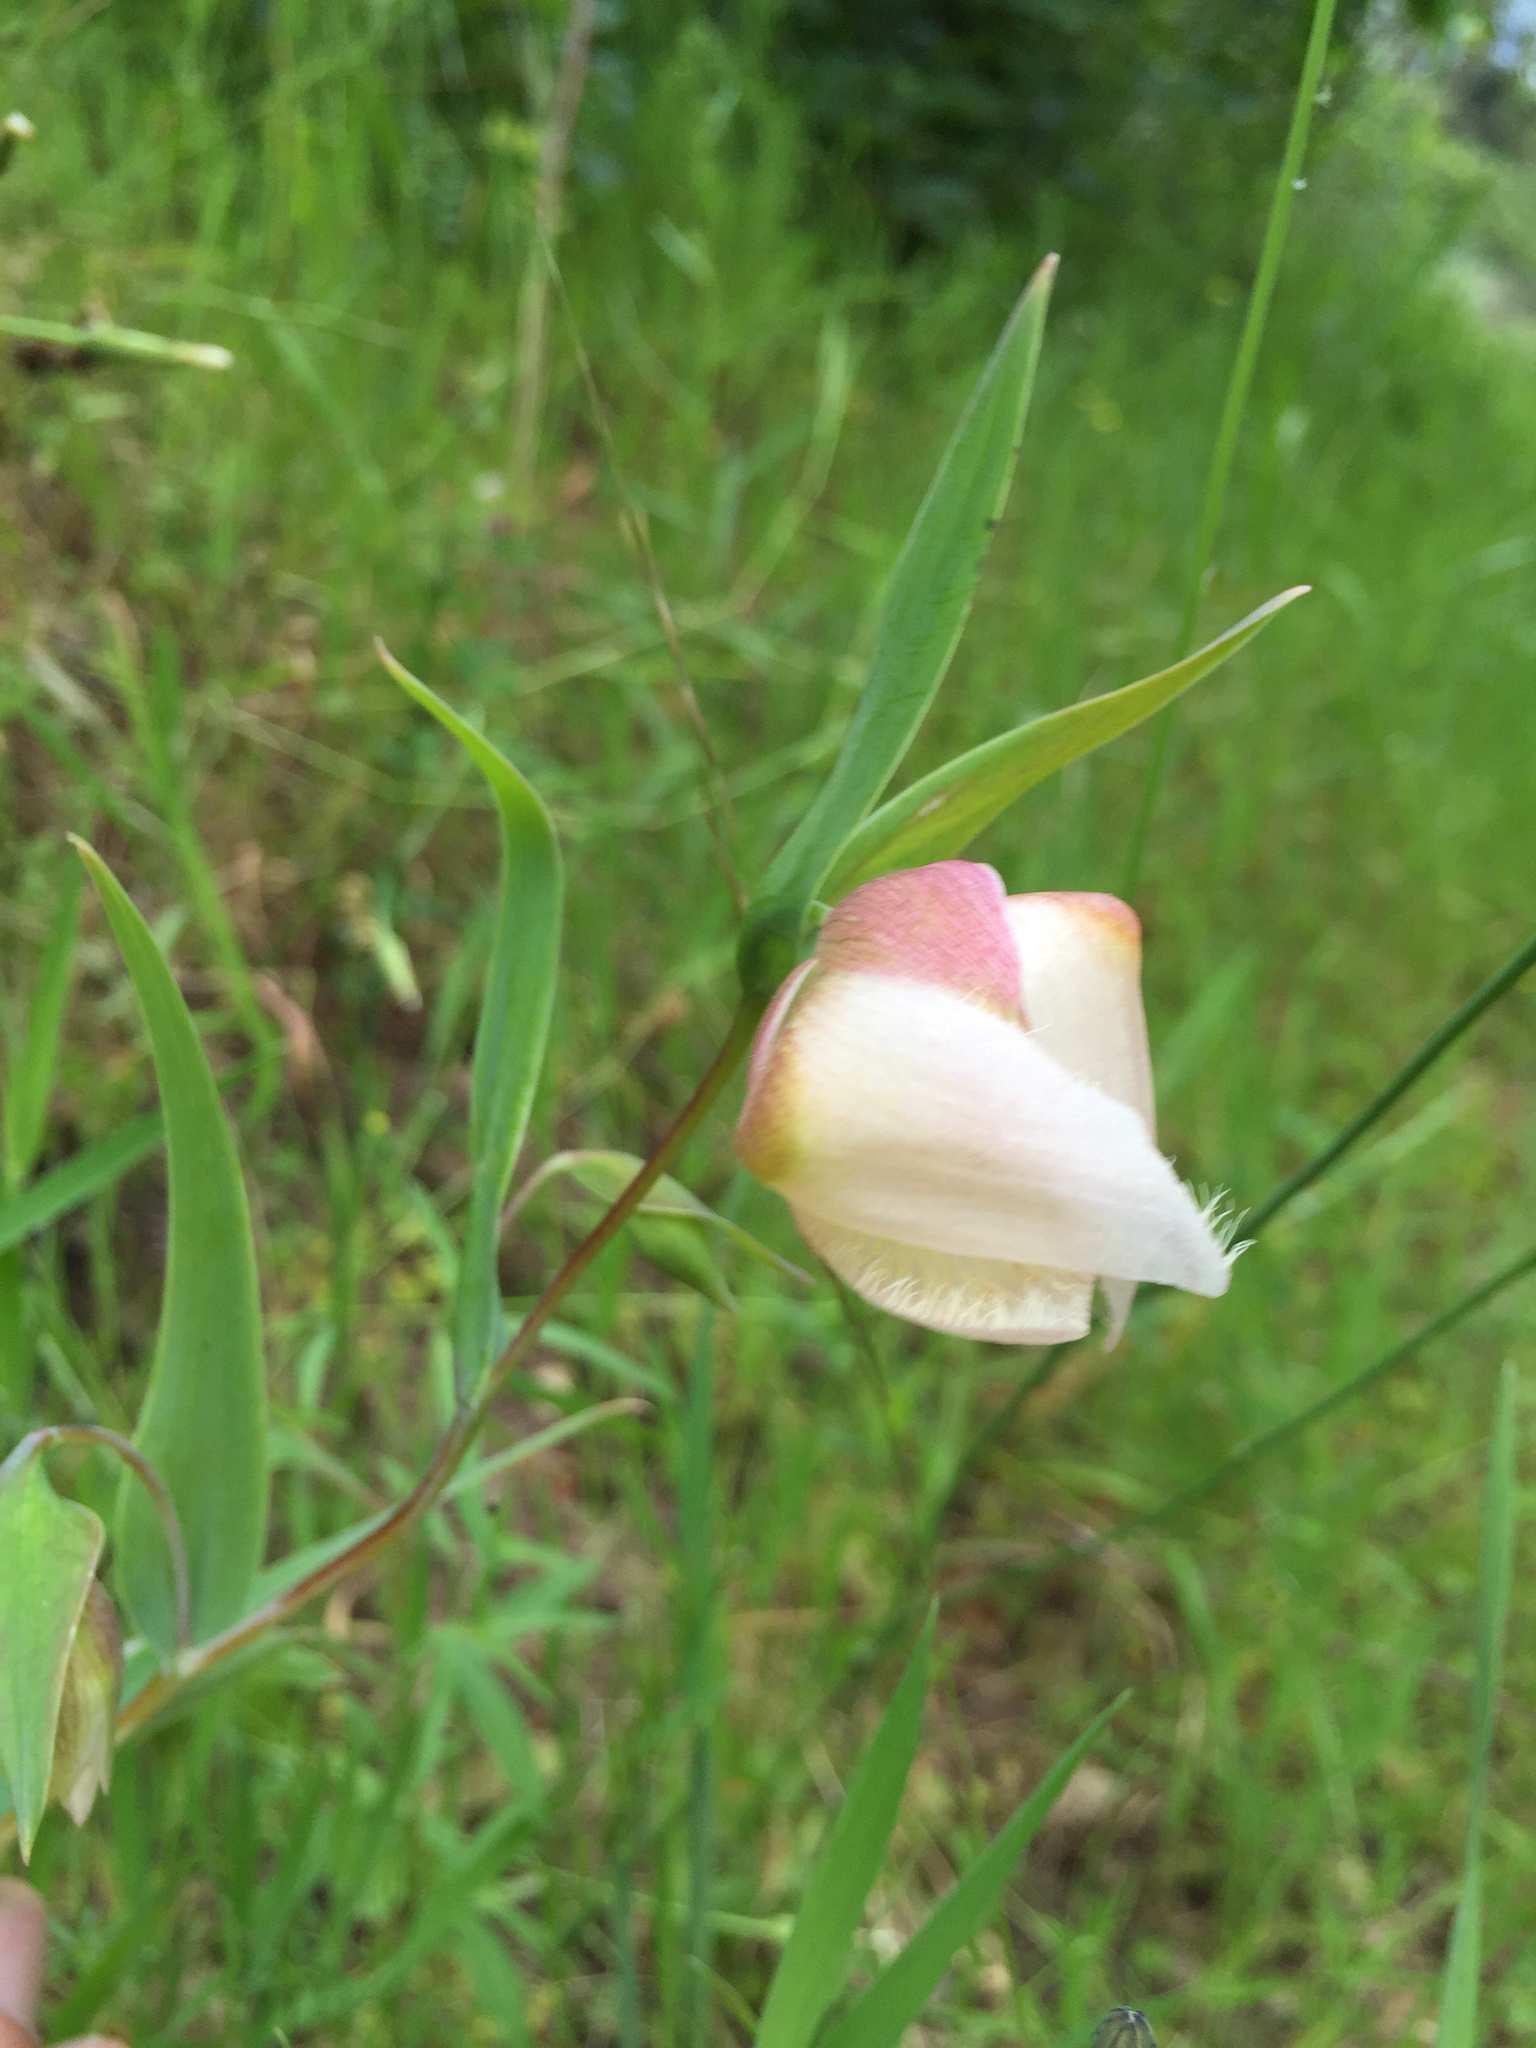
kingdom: Plantae
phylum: Tracheophyta
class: Liliopsida
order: Liliales
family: Liliaceae
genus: Calochortus
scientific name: Calochortus albus
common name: Fairy-lantern
